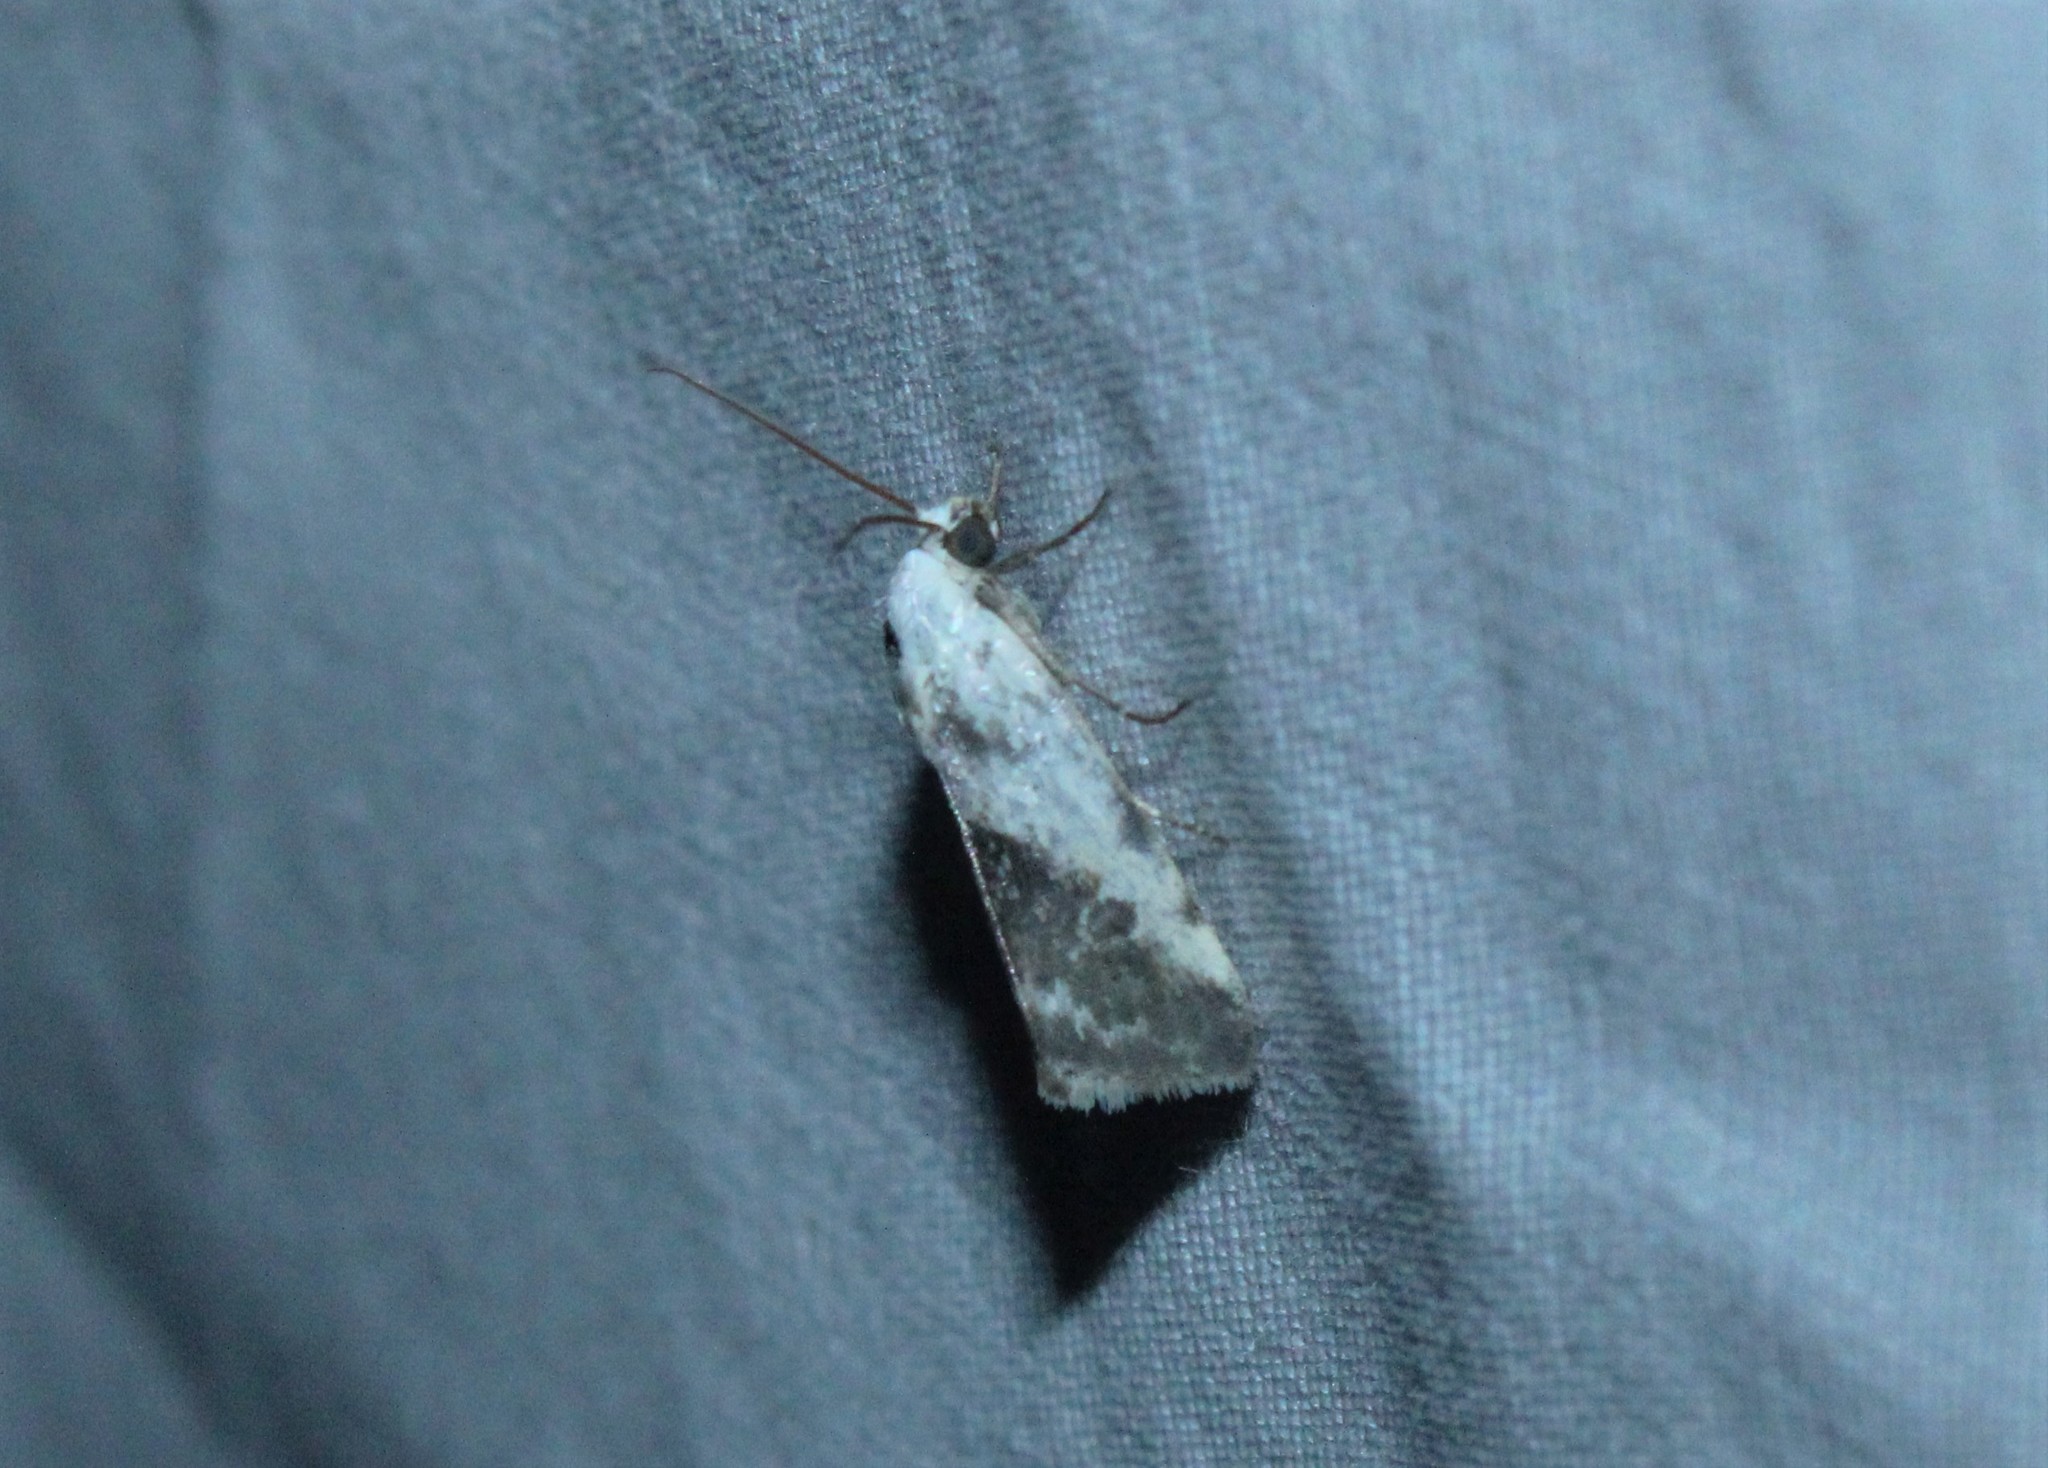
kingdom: Animalia
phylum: Arthropoda
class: Insecta
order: Lepidoptera
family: Noctuidae
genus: Acontia
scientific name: Acontia candefacta
